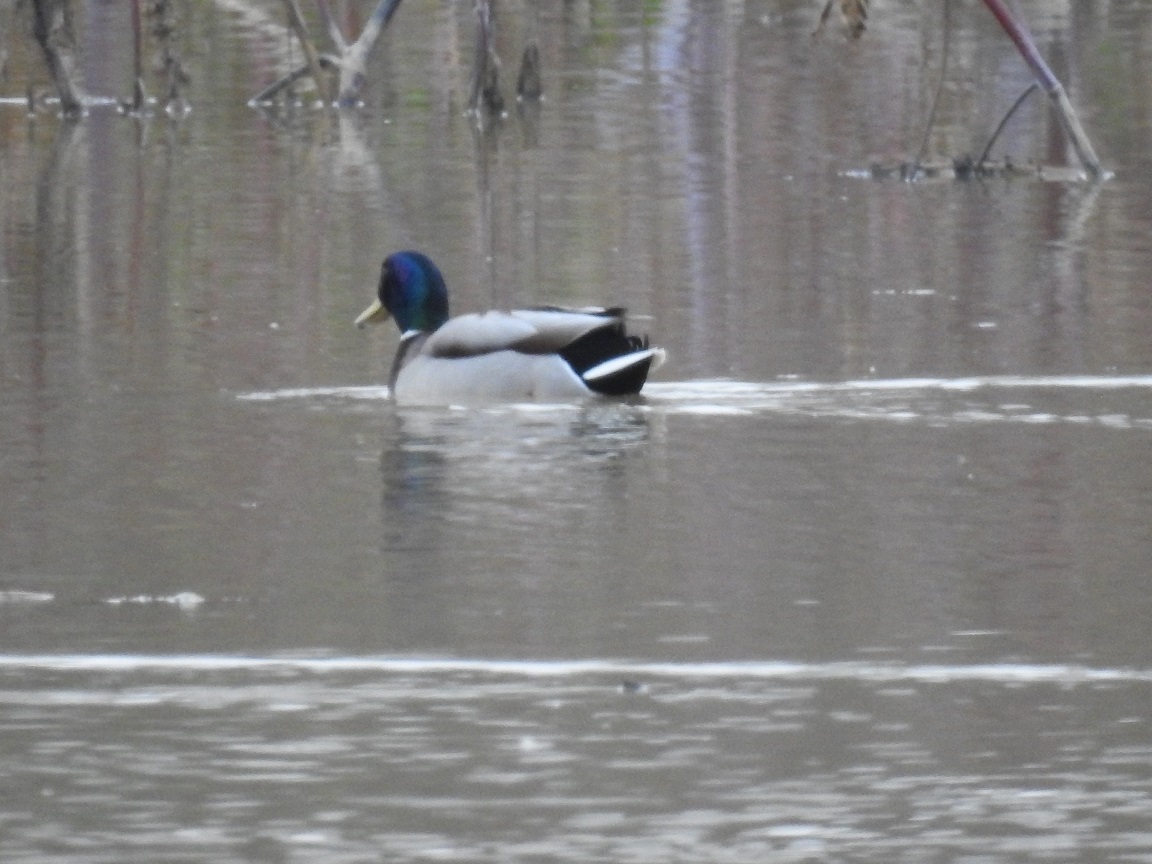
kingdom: Animalia
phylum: Chordata
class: Aves
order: Anseriformes
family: Anatidae
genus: Anas
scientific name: Anas platyrhynchos
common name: Mallard
